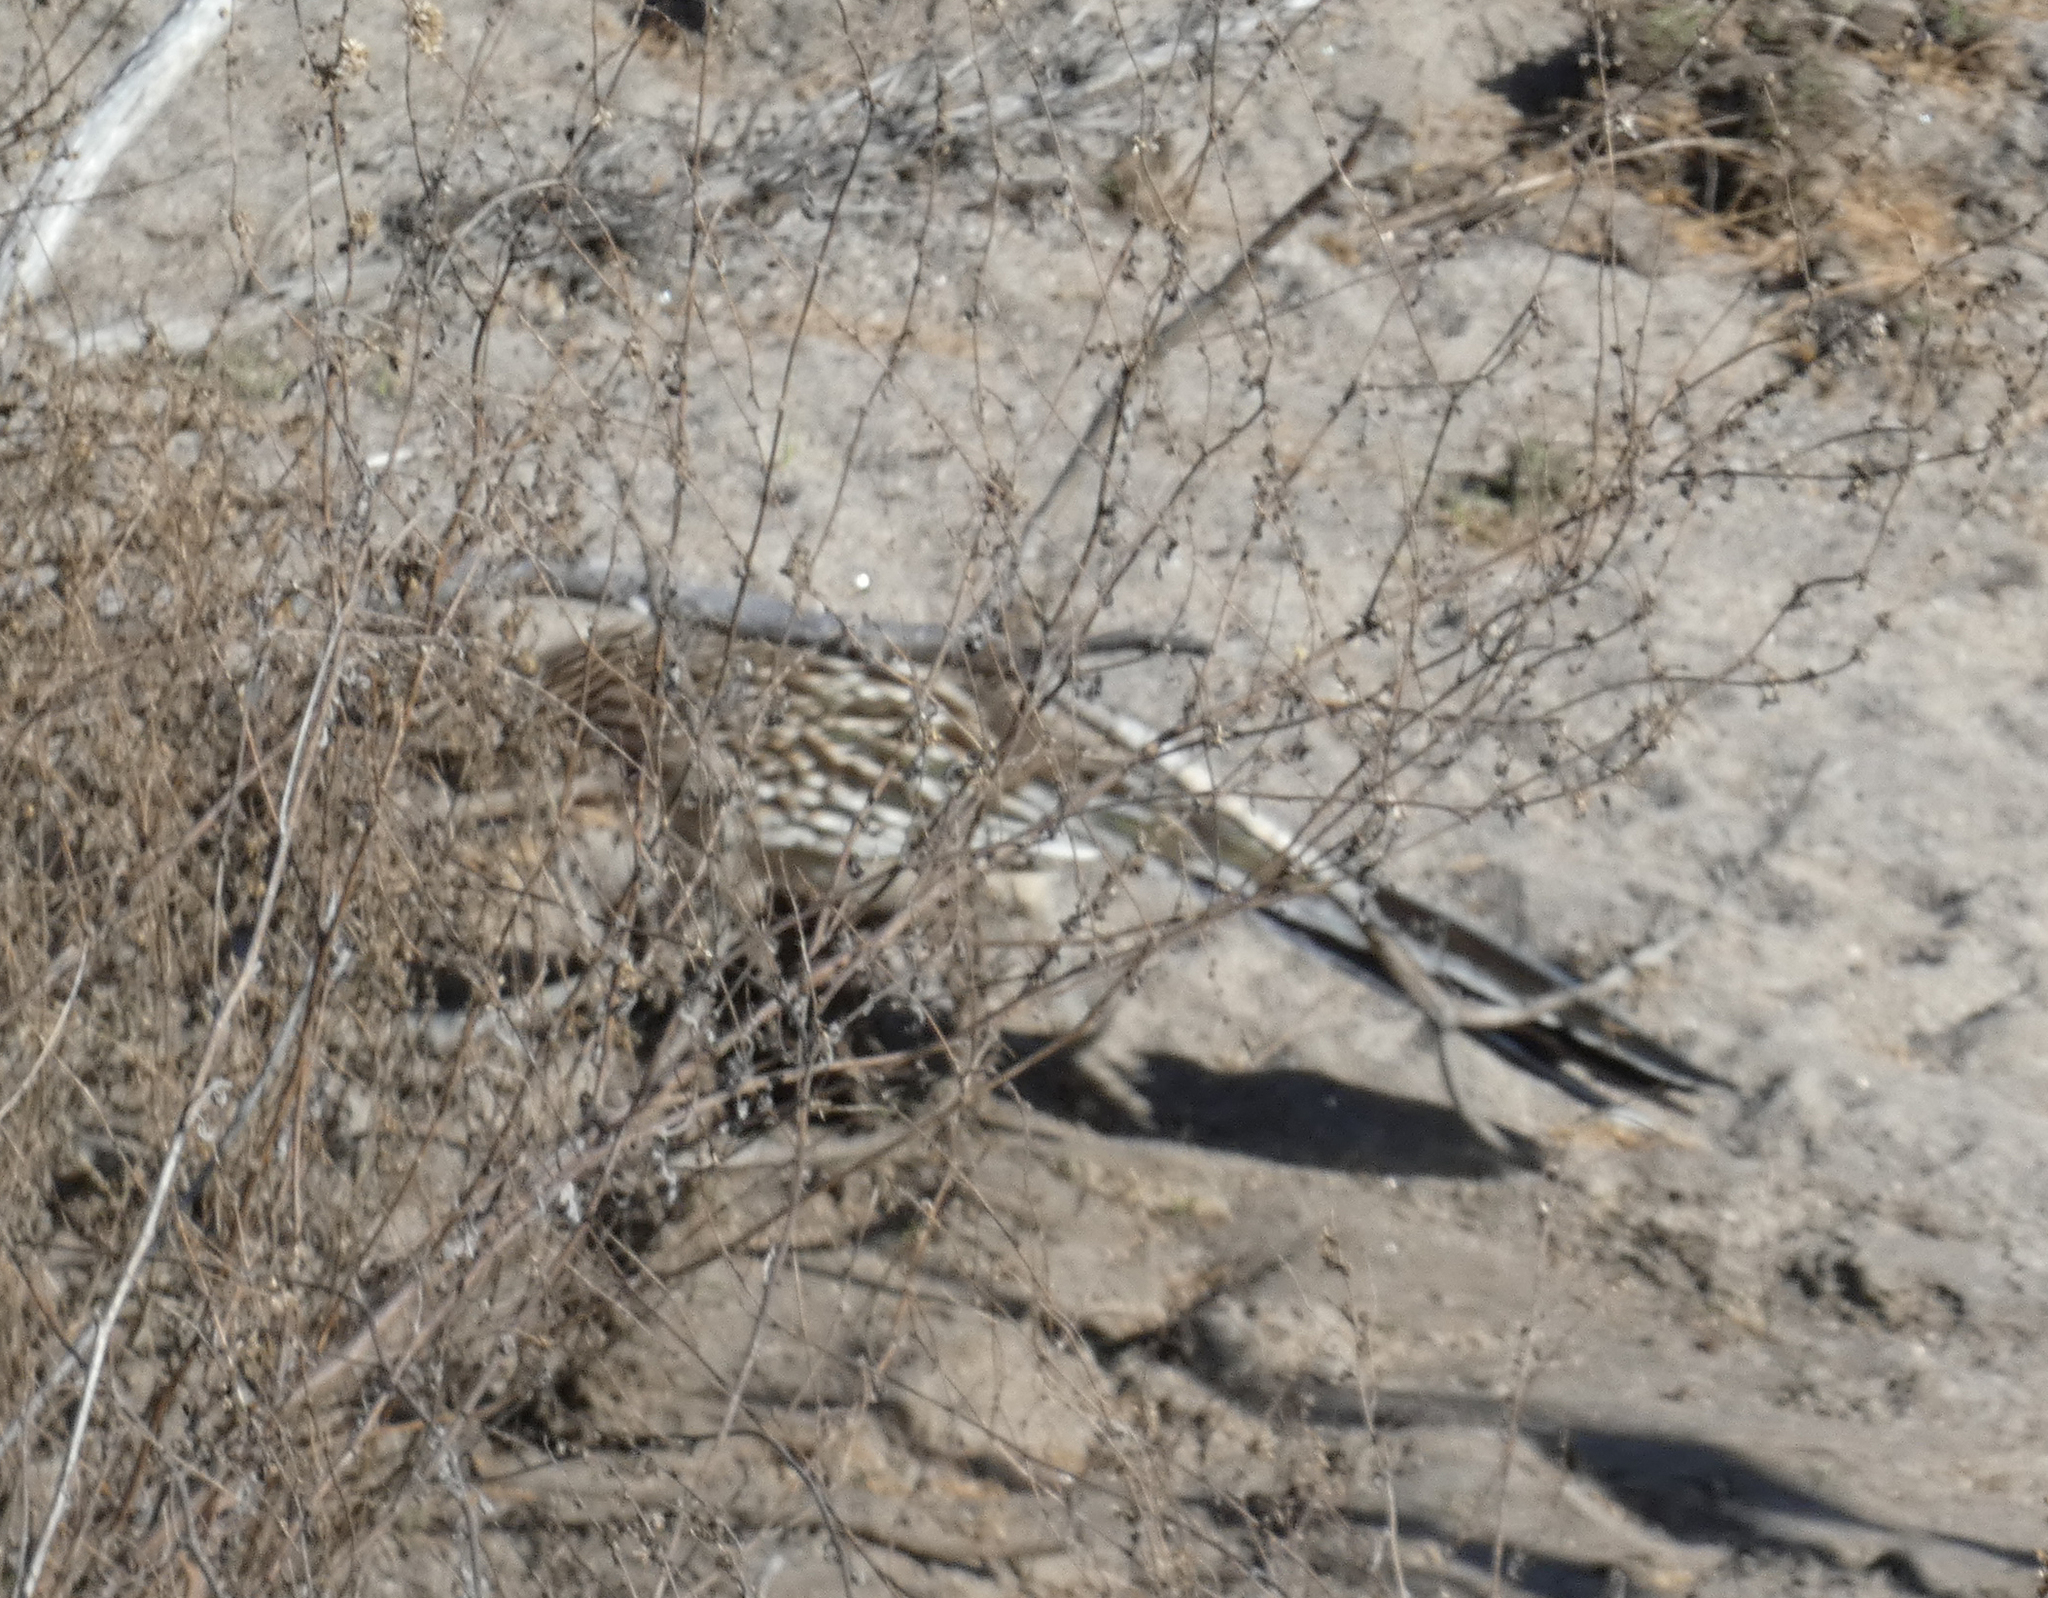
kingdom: Animalia
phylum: Chordata
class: Aves
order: Cuculiformes
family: Cuculidae
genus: Geococcyx
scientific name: Geococcyx californianus
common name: Greater roadrunner
